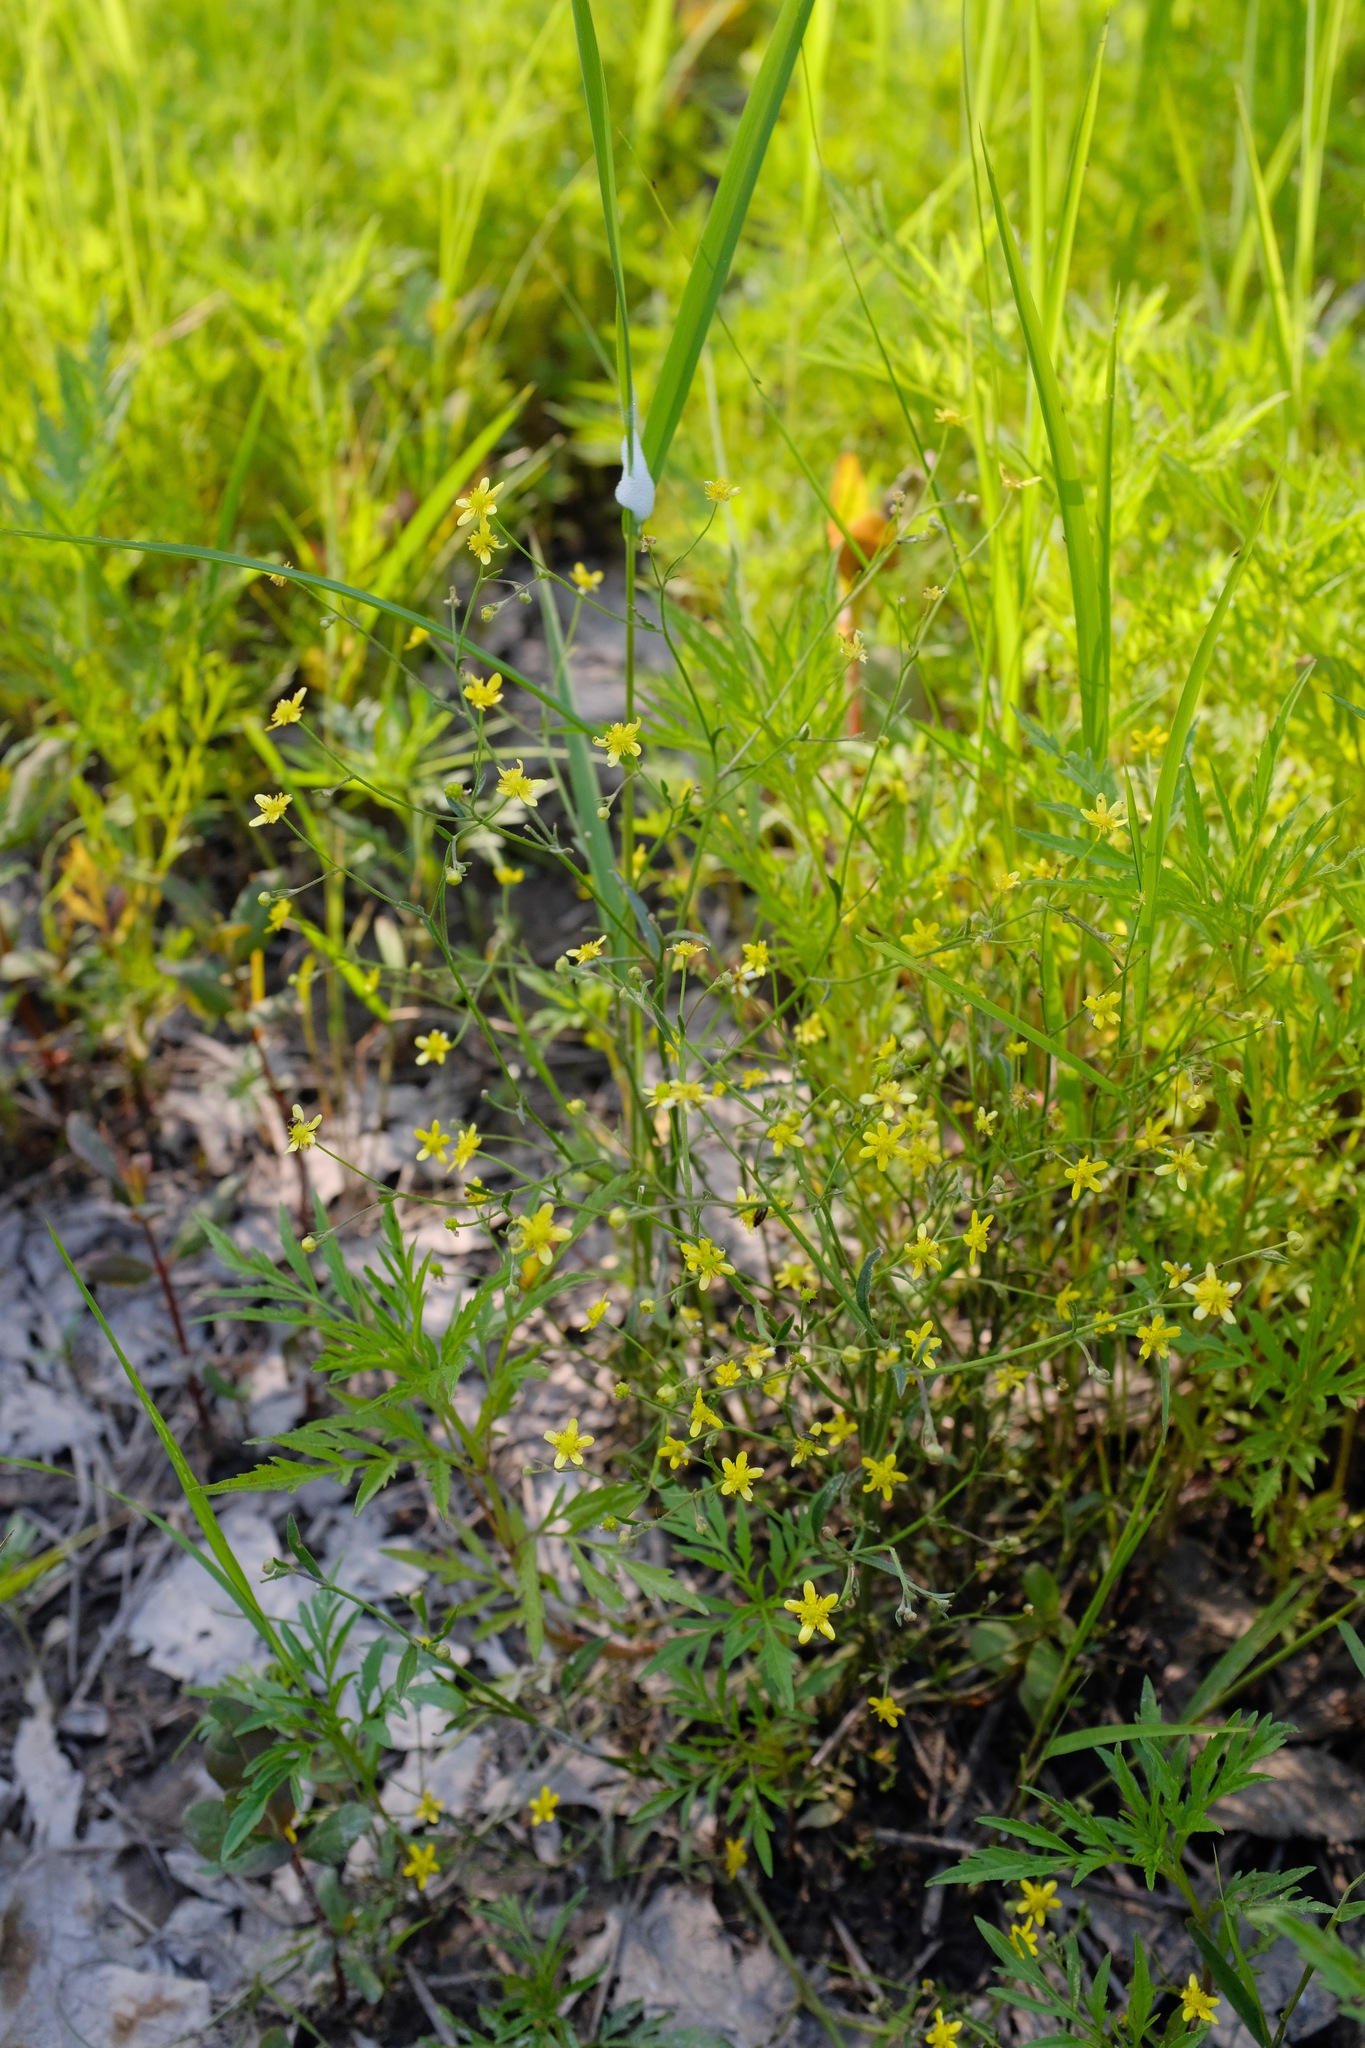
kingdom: Plantae
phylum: Tracheophyta
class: Magnoliopsida
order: Ranunculales
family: Ranunculaceae
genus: Ranunculus
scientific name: Ranunculus laxicaulis
